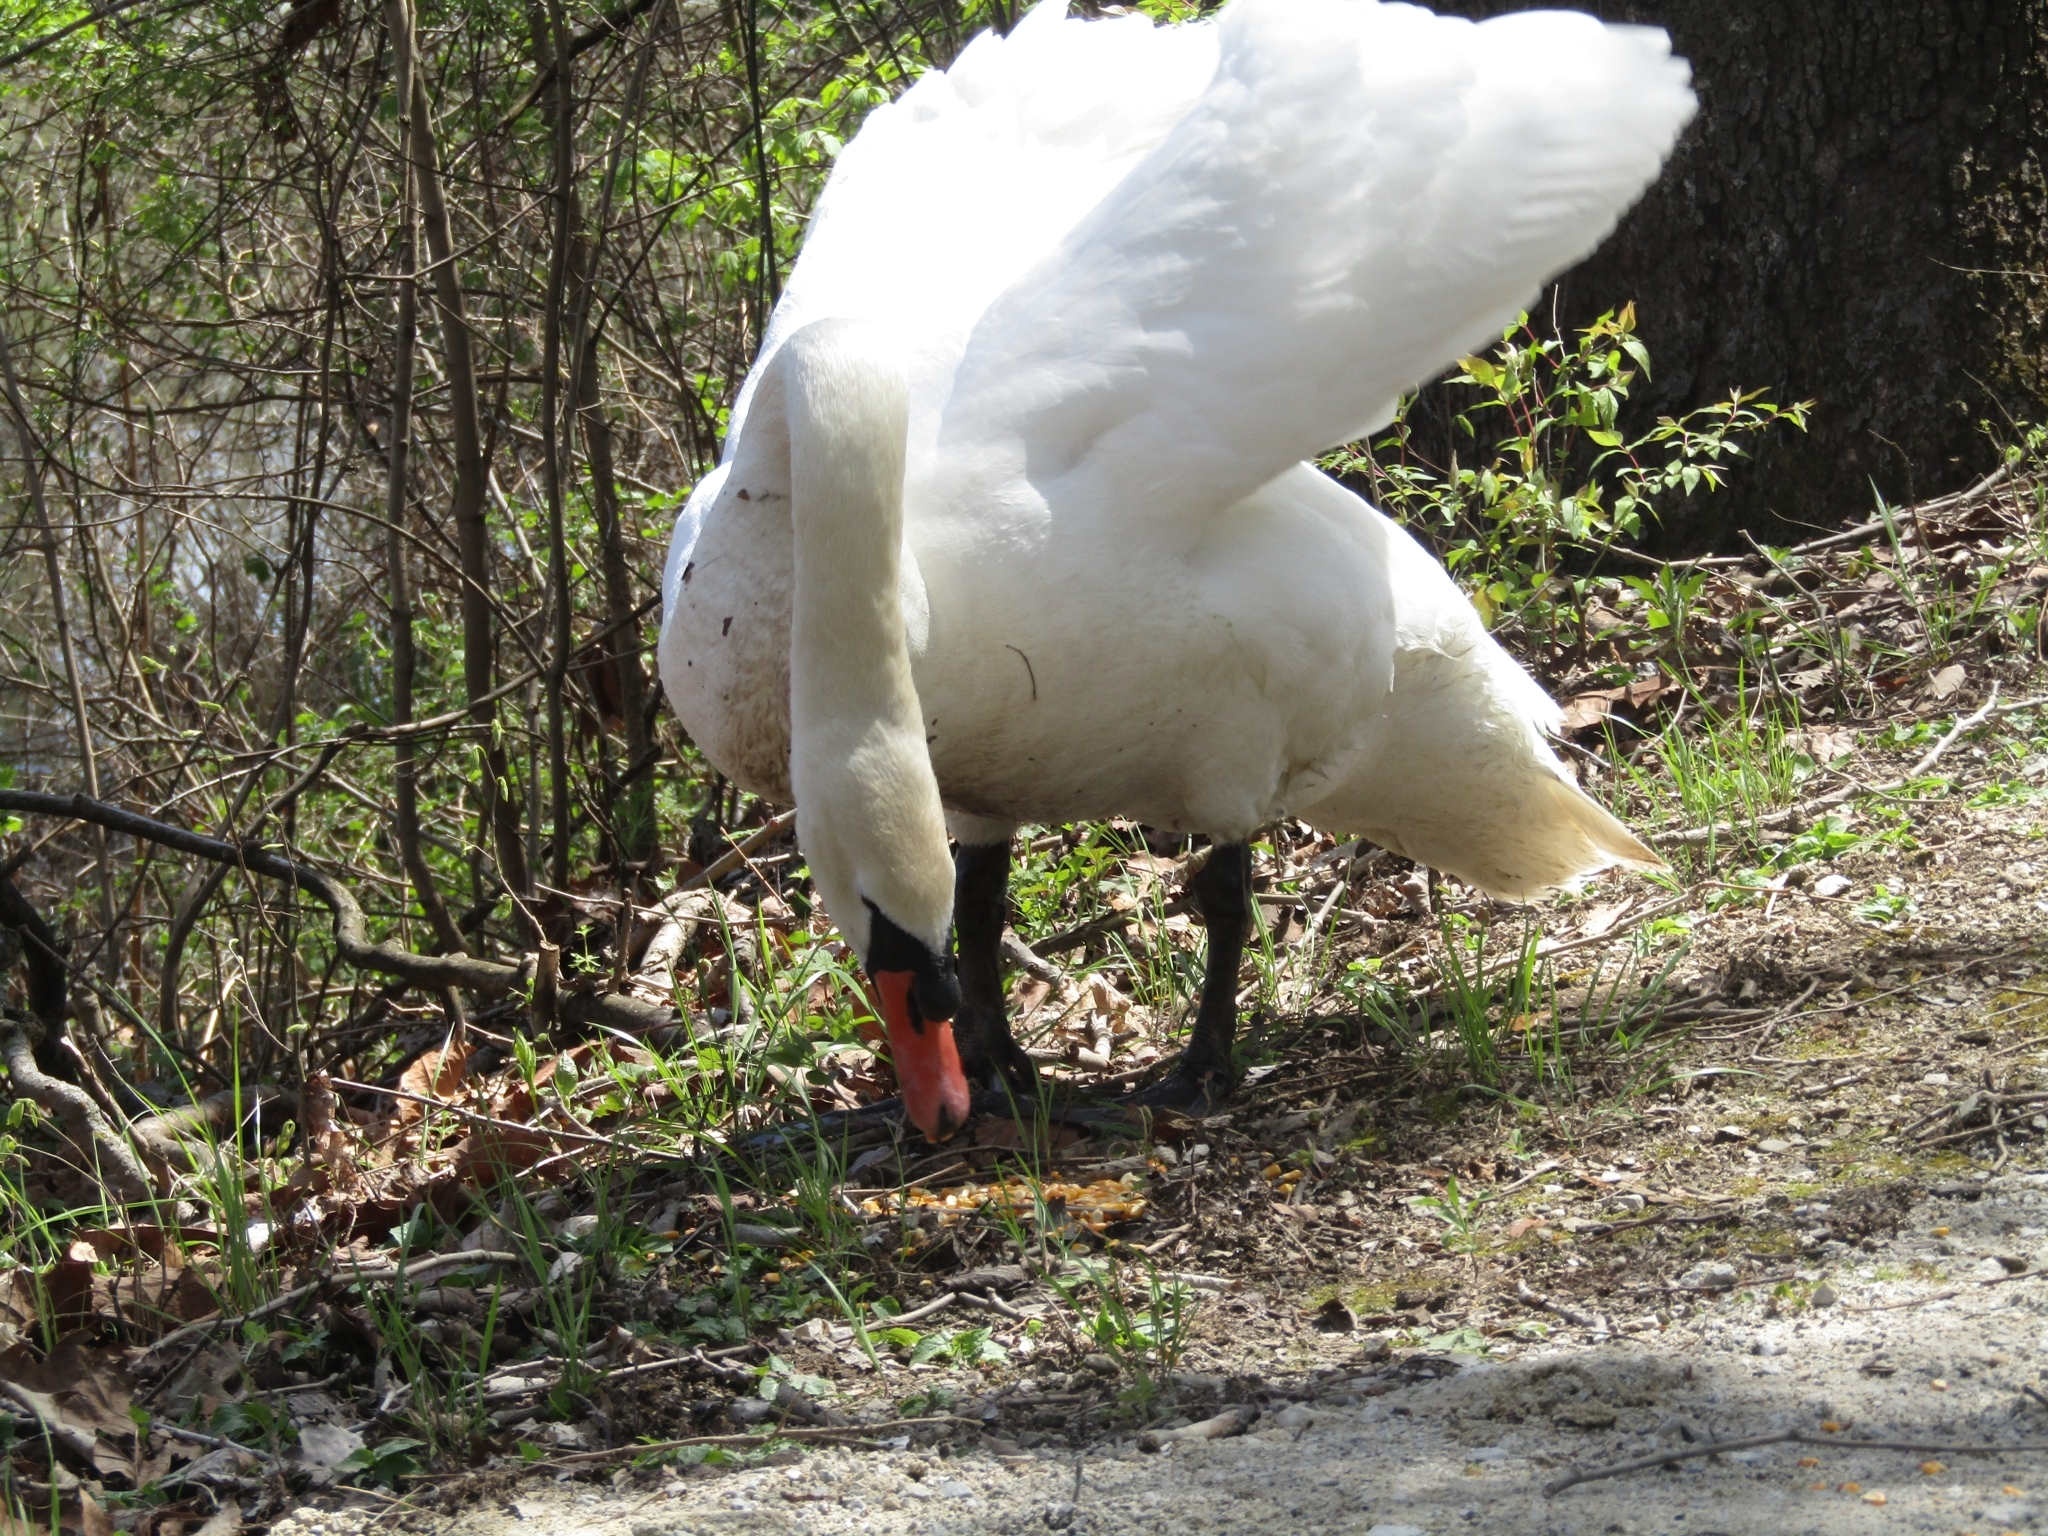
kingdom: Animalia
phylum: Chordata
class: Aves
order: Anseriformes
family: Anatidae
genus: Cygnus
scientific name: Cygnus olor
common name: Mute swan
